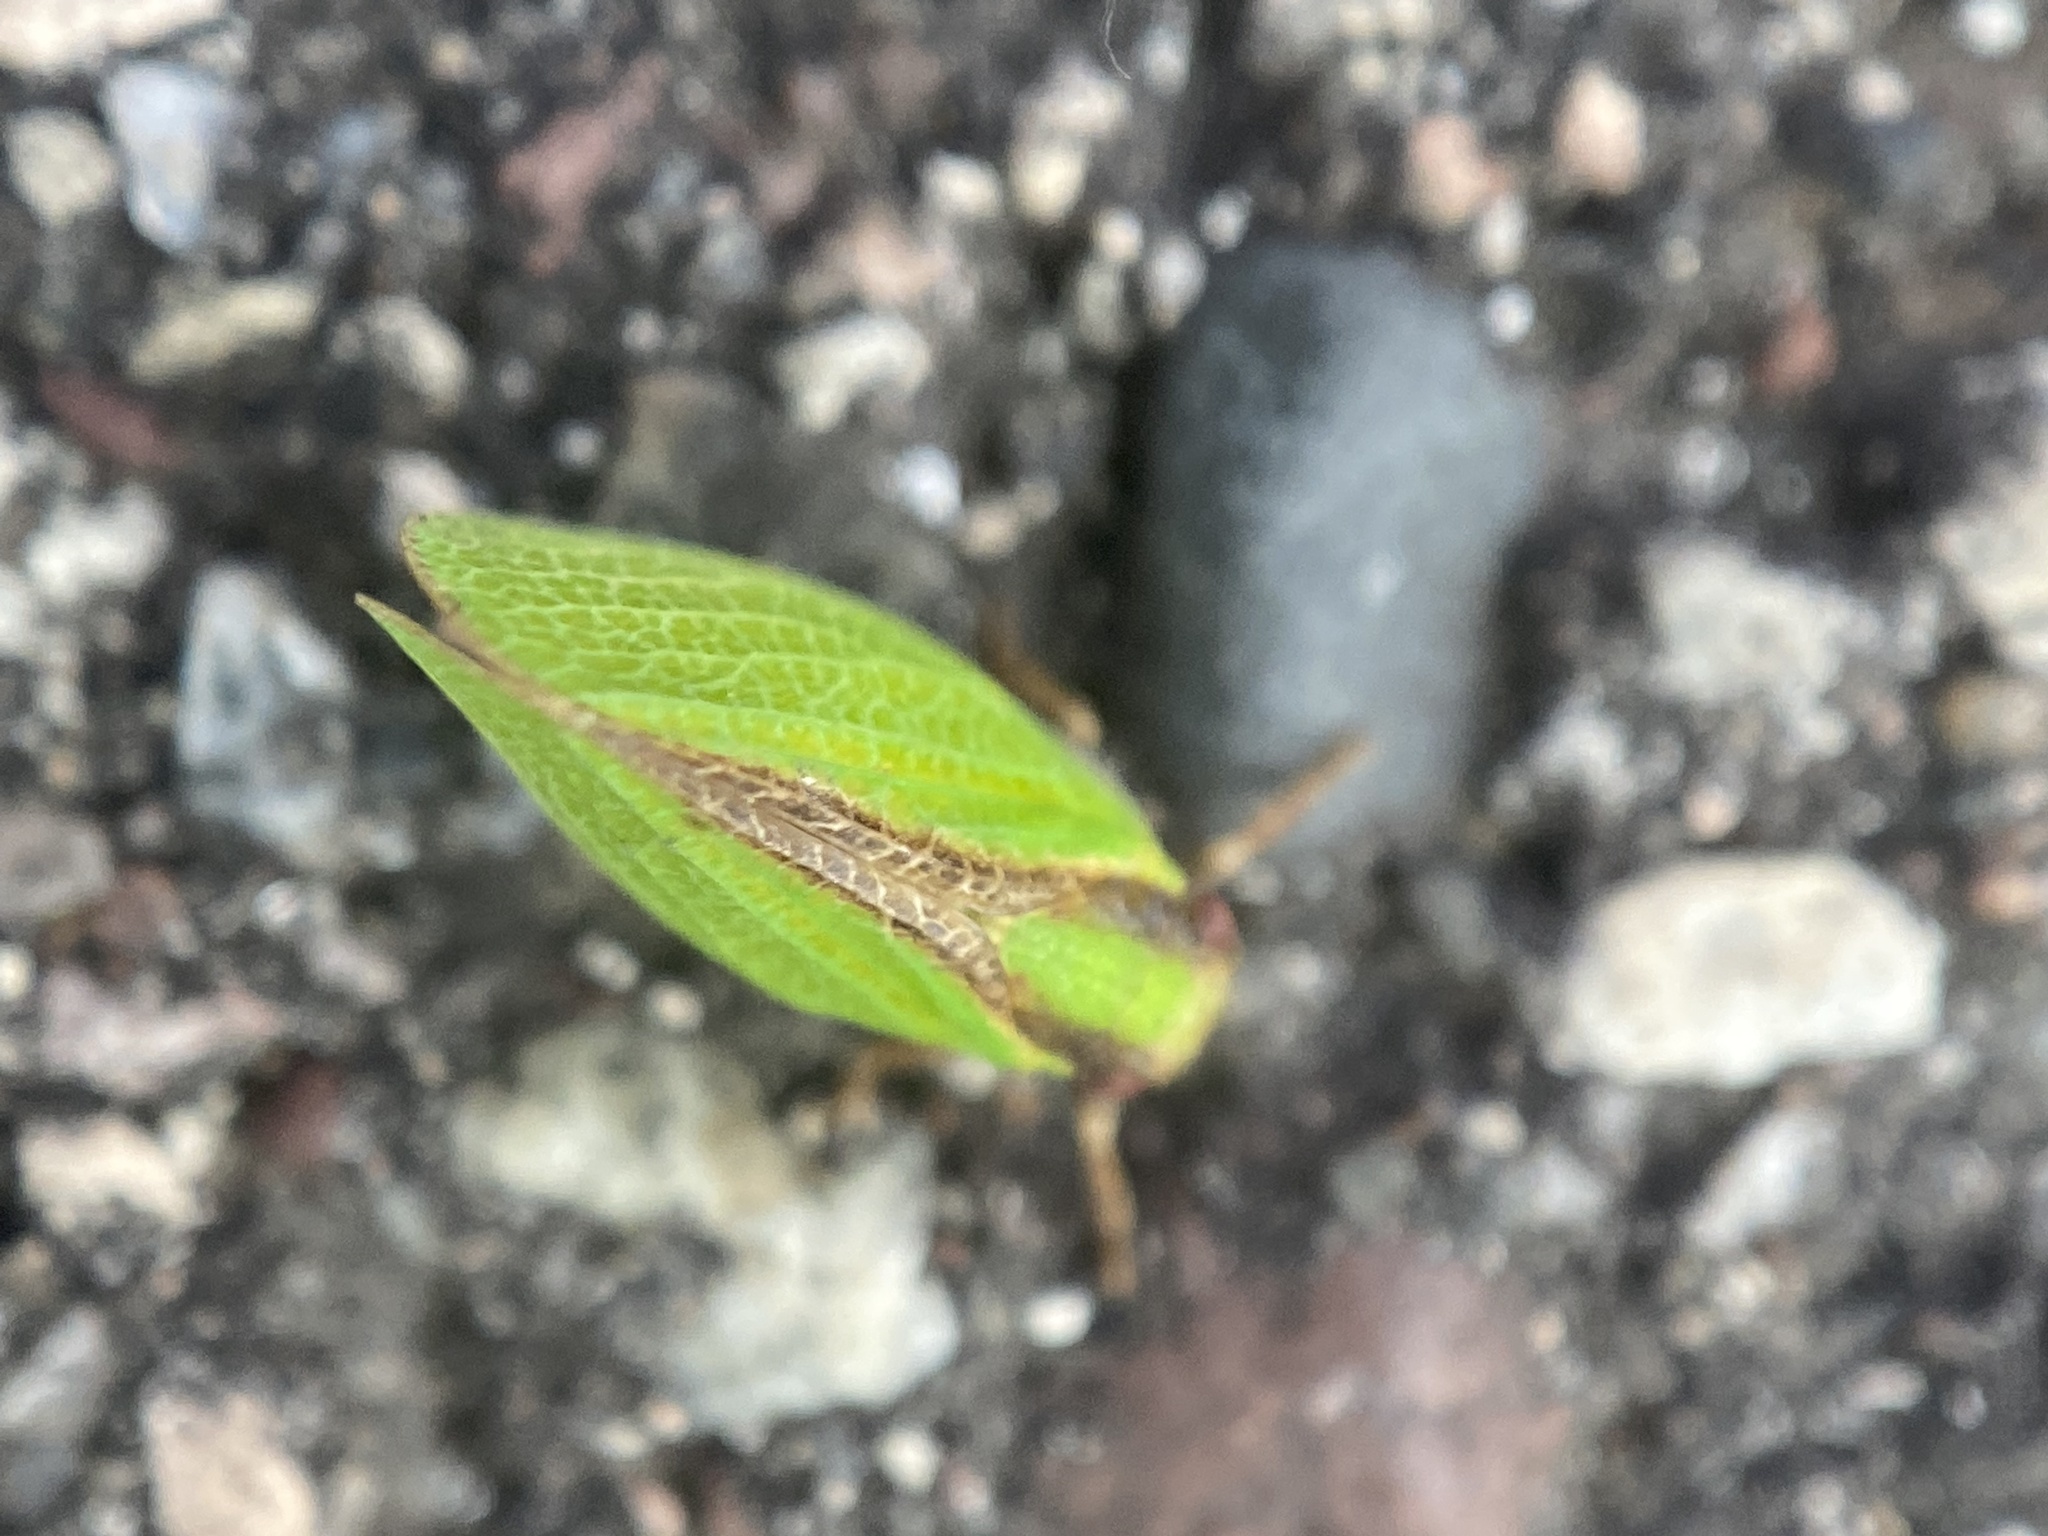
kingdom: Animalia
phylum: Arthropoda
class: Insecta
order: Hemiptera
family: Acanaloniidae
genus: Acanalonia
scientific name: Acanalonia bivittata
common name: Two-striped planthopper
